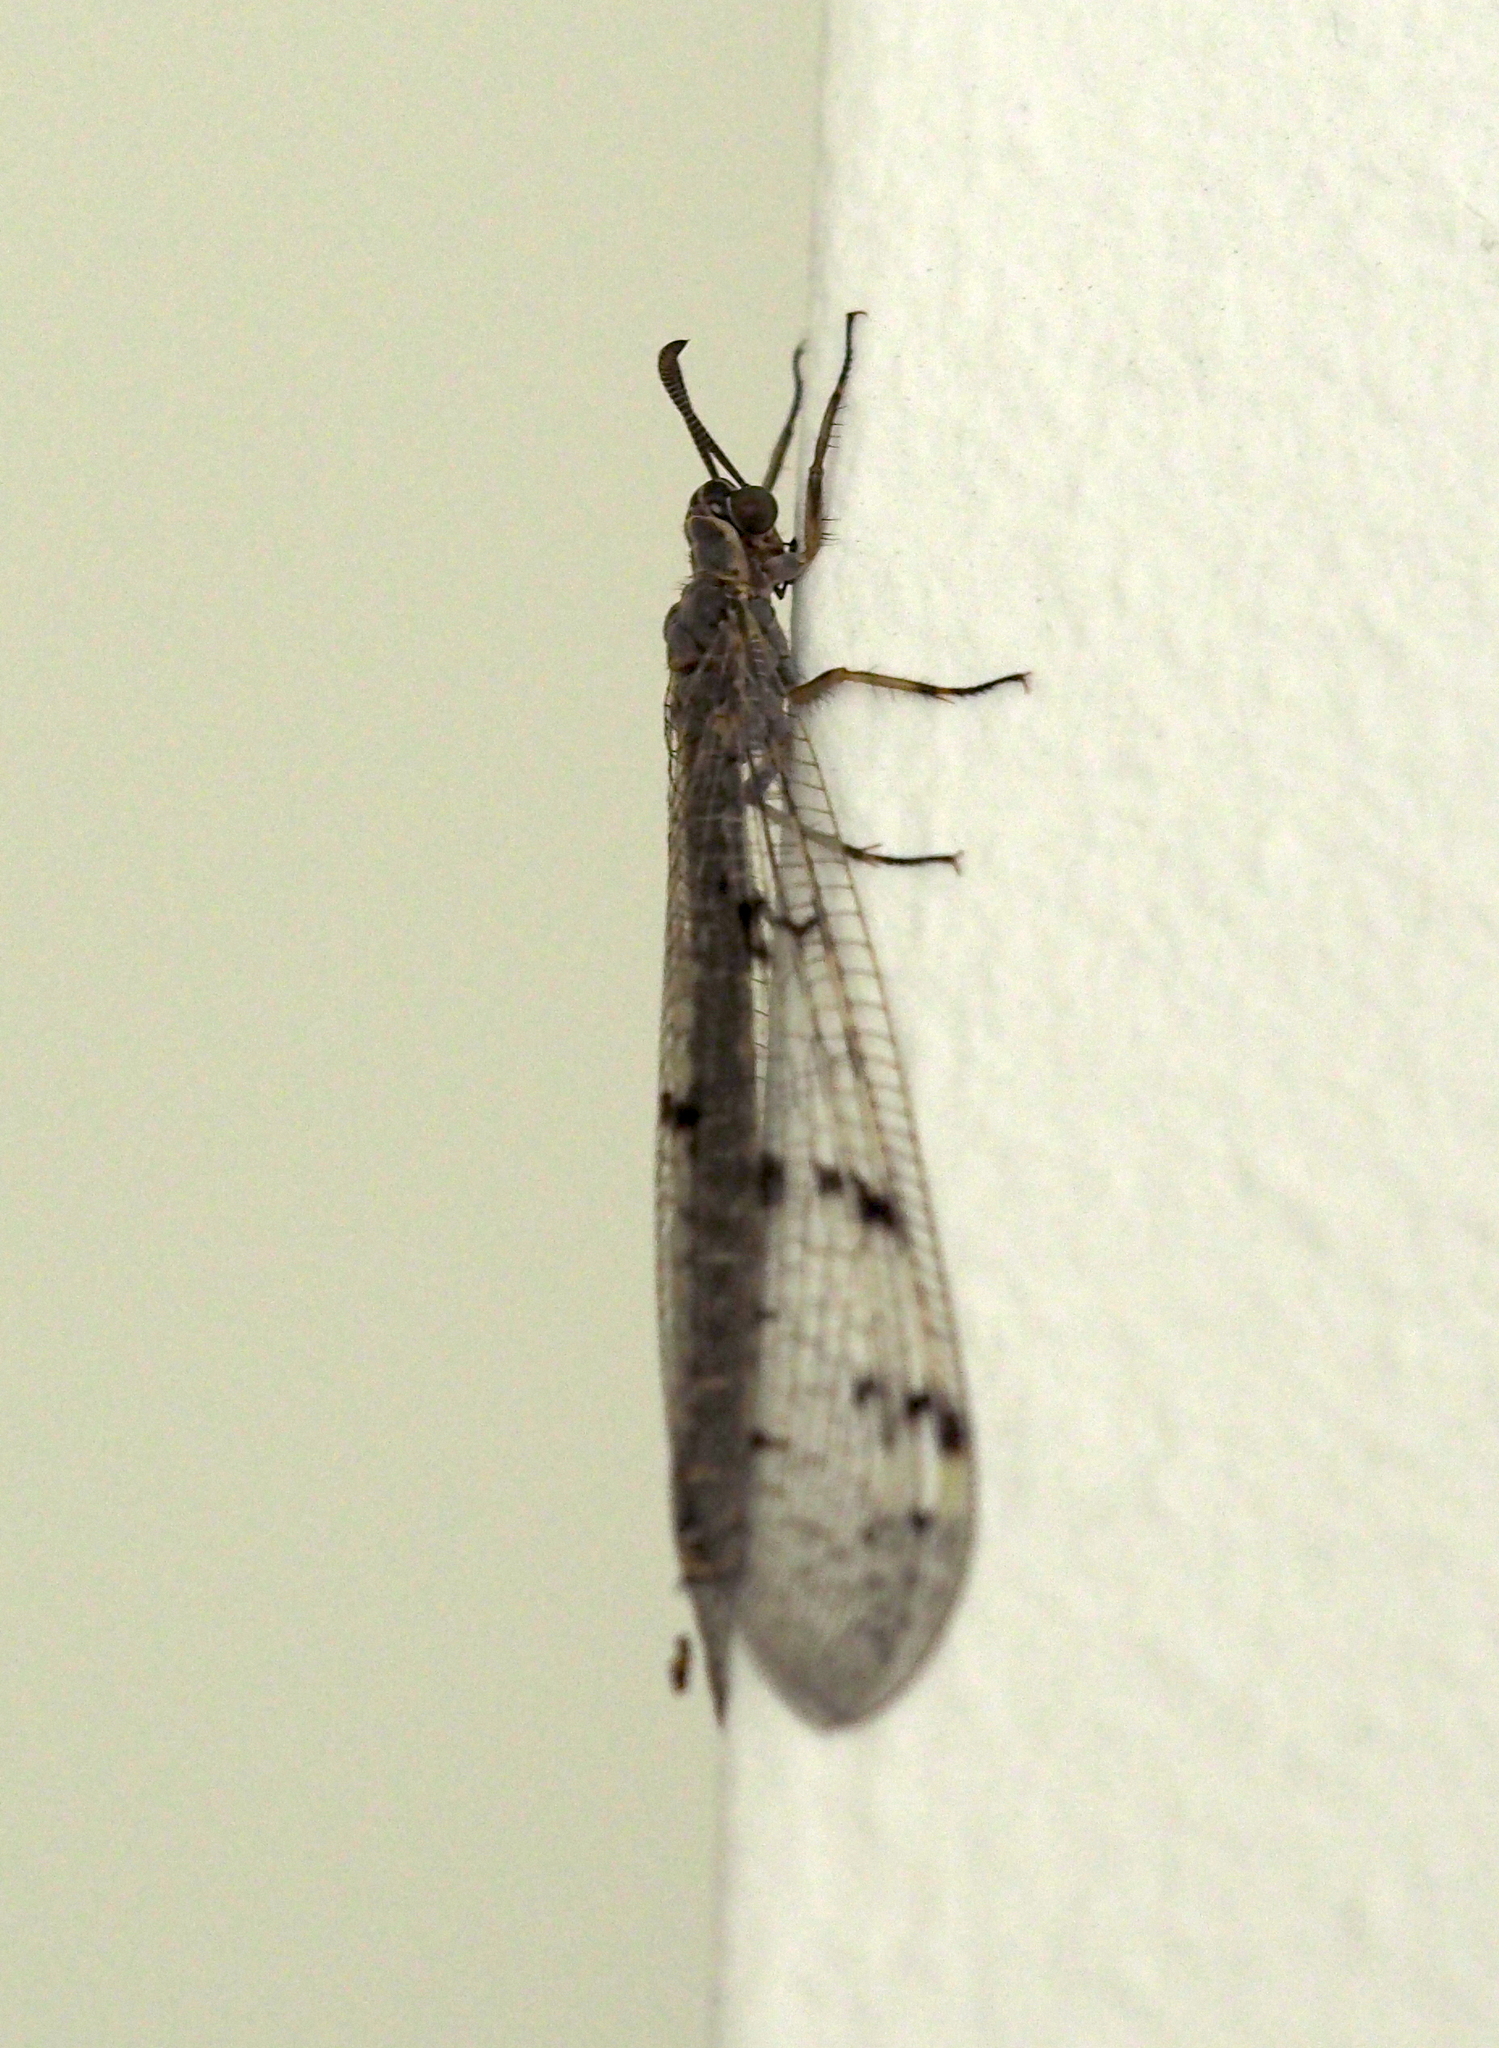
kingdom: Animalia
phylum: Arthropoda
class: Insecta
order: Neuroptera
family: Myrmeleontidae
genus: Euroleon
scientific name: Euroleon nostras
